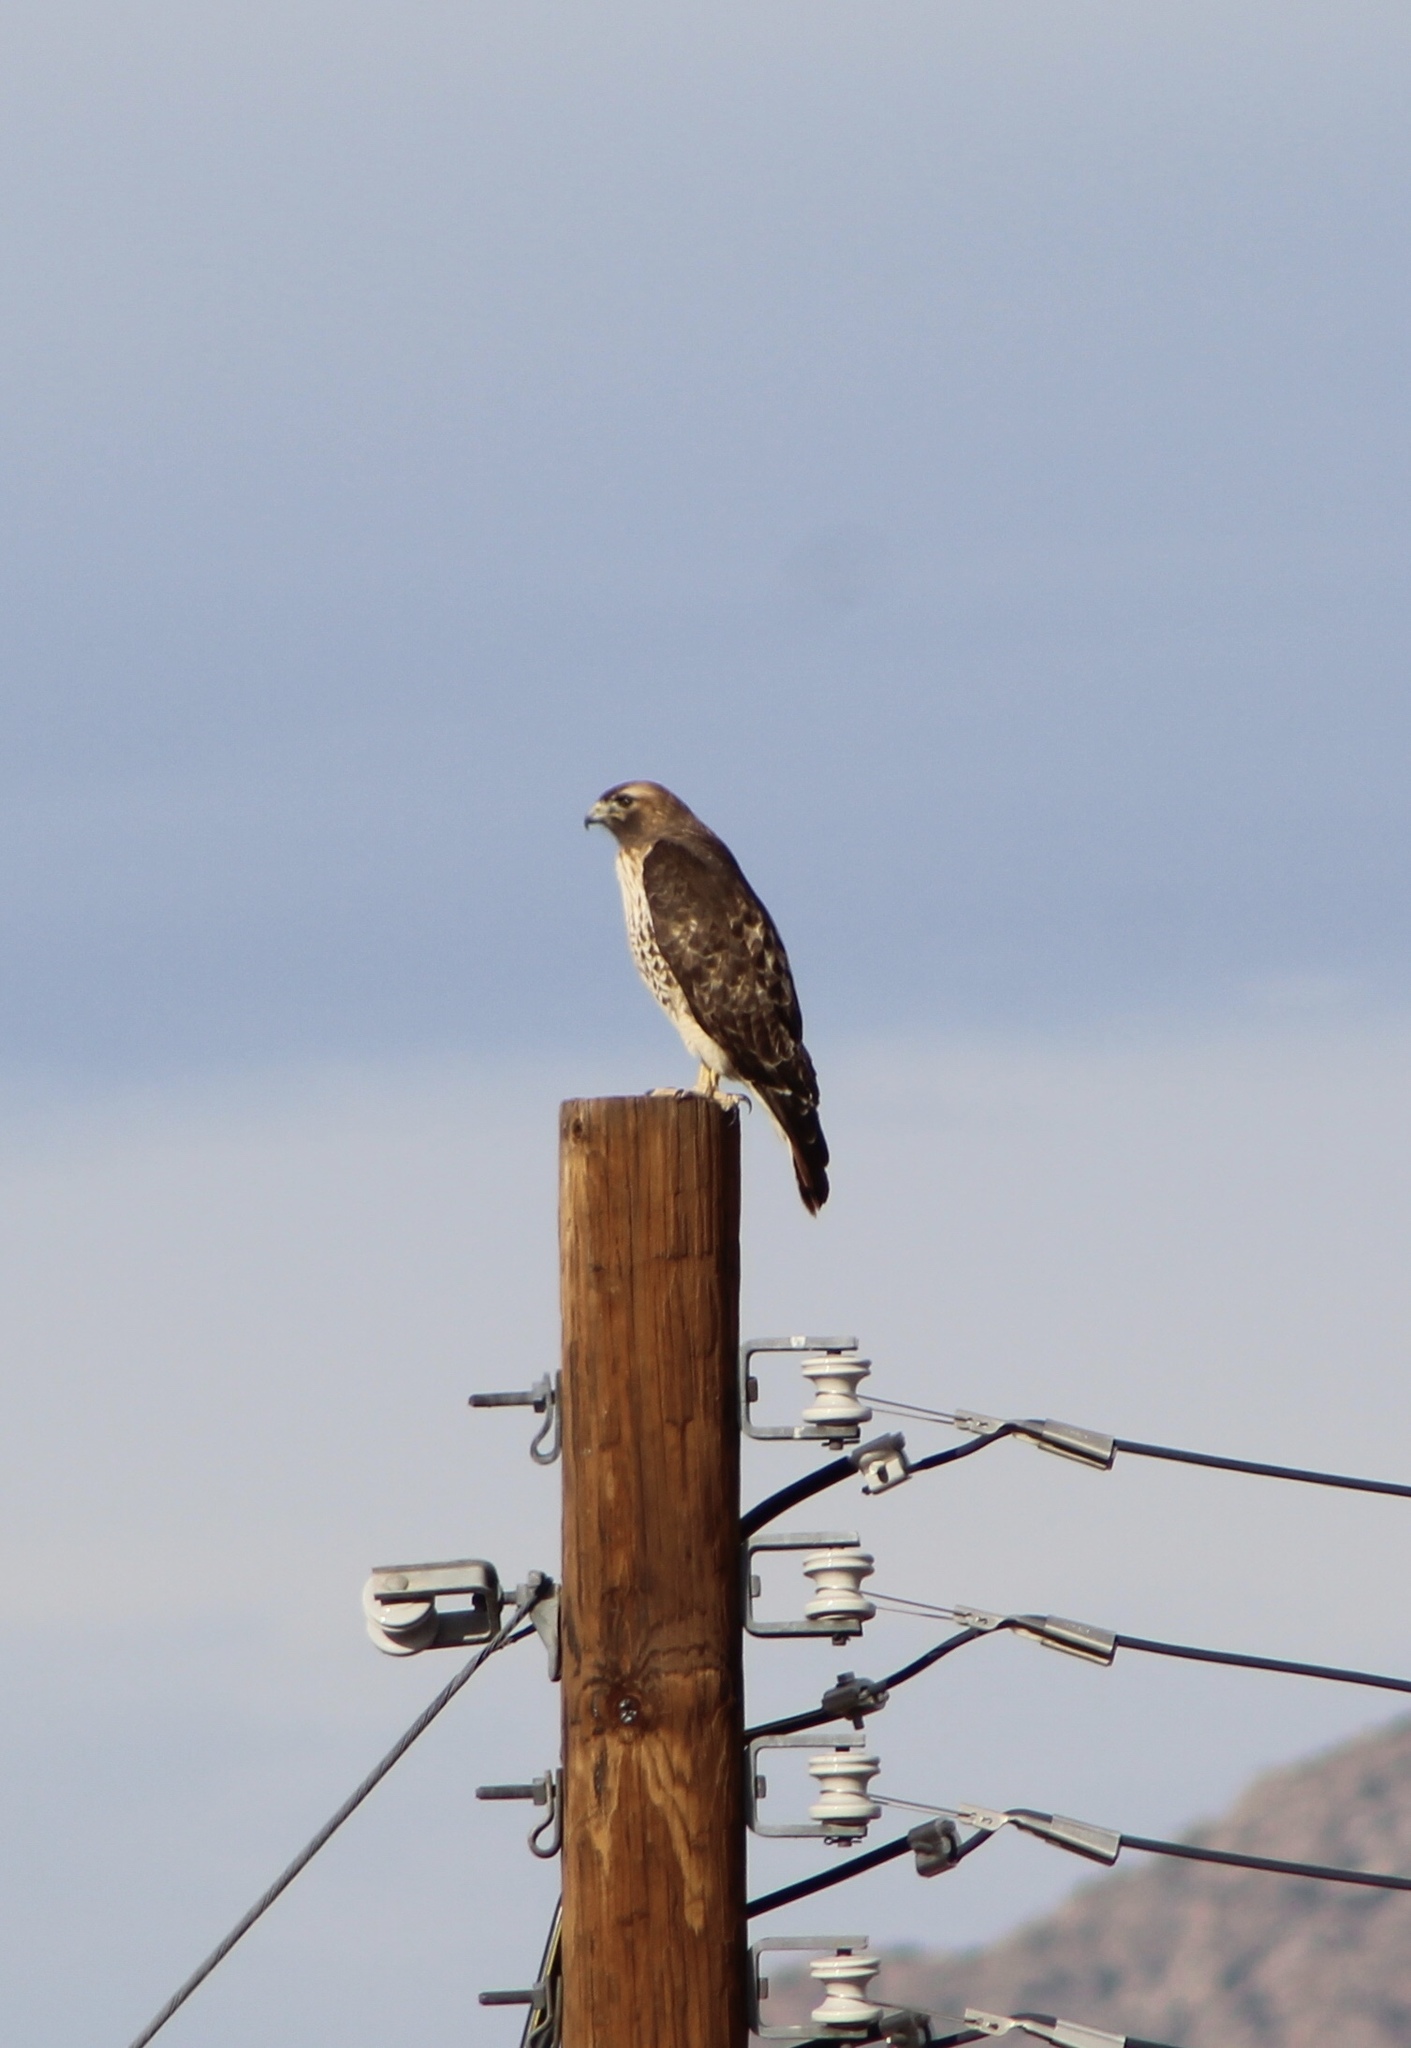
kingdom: Animalia
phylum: Chordata
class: Aves
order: Accipitriformes
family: Accipitridae
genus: Buteo
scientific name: Buteo jamaicensis
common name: Red-tailed hawk
